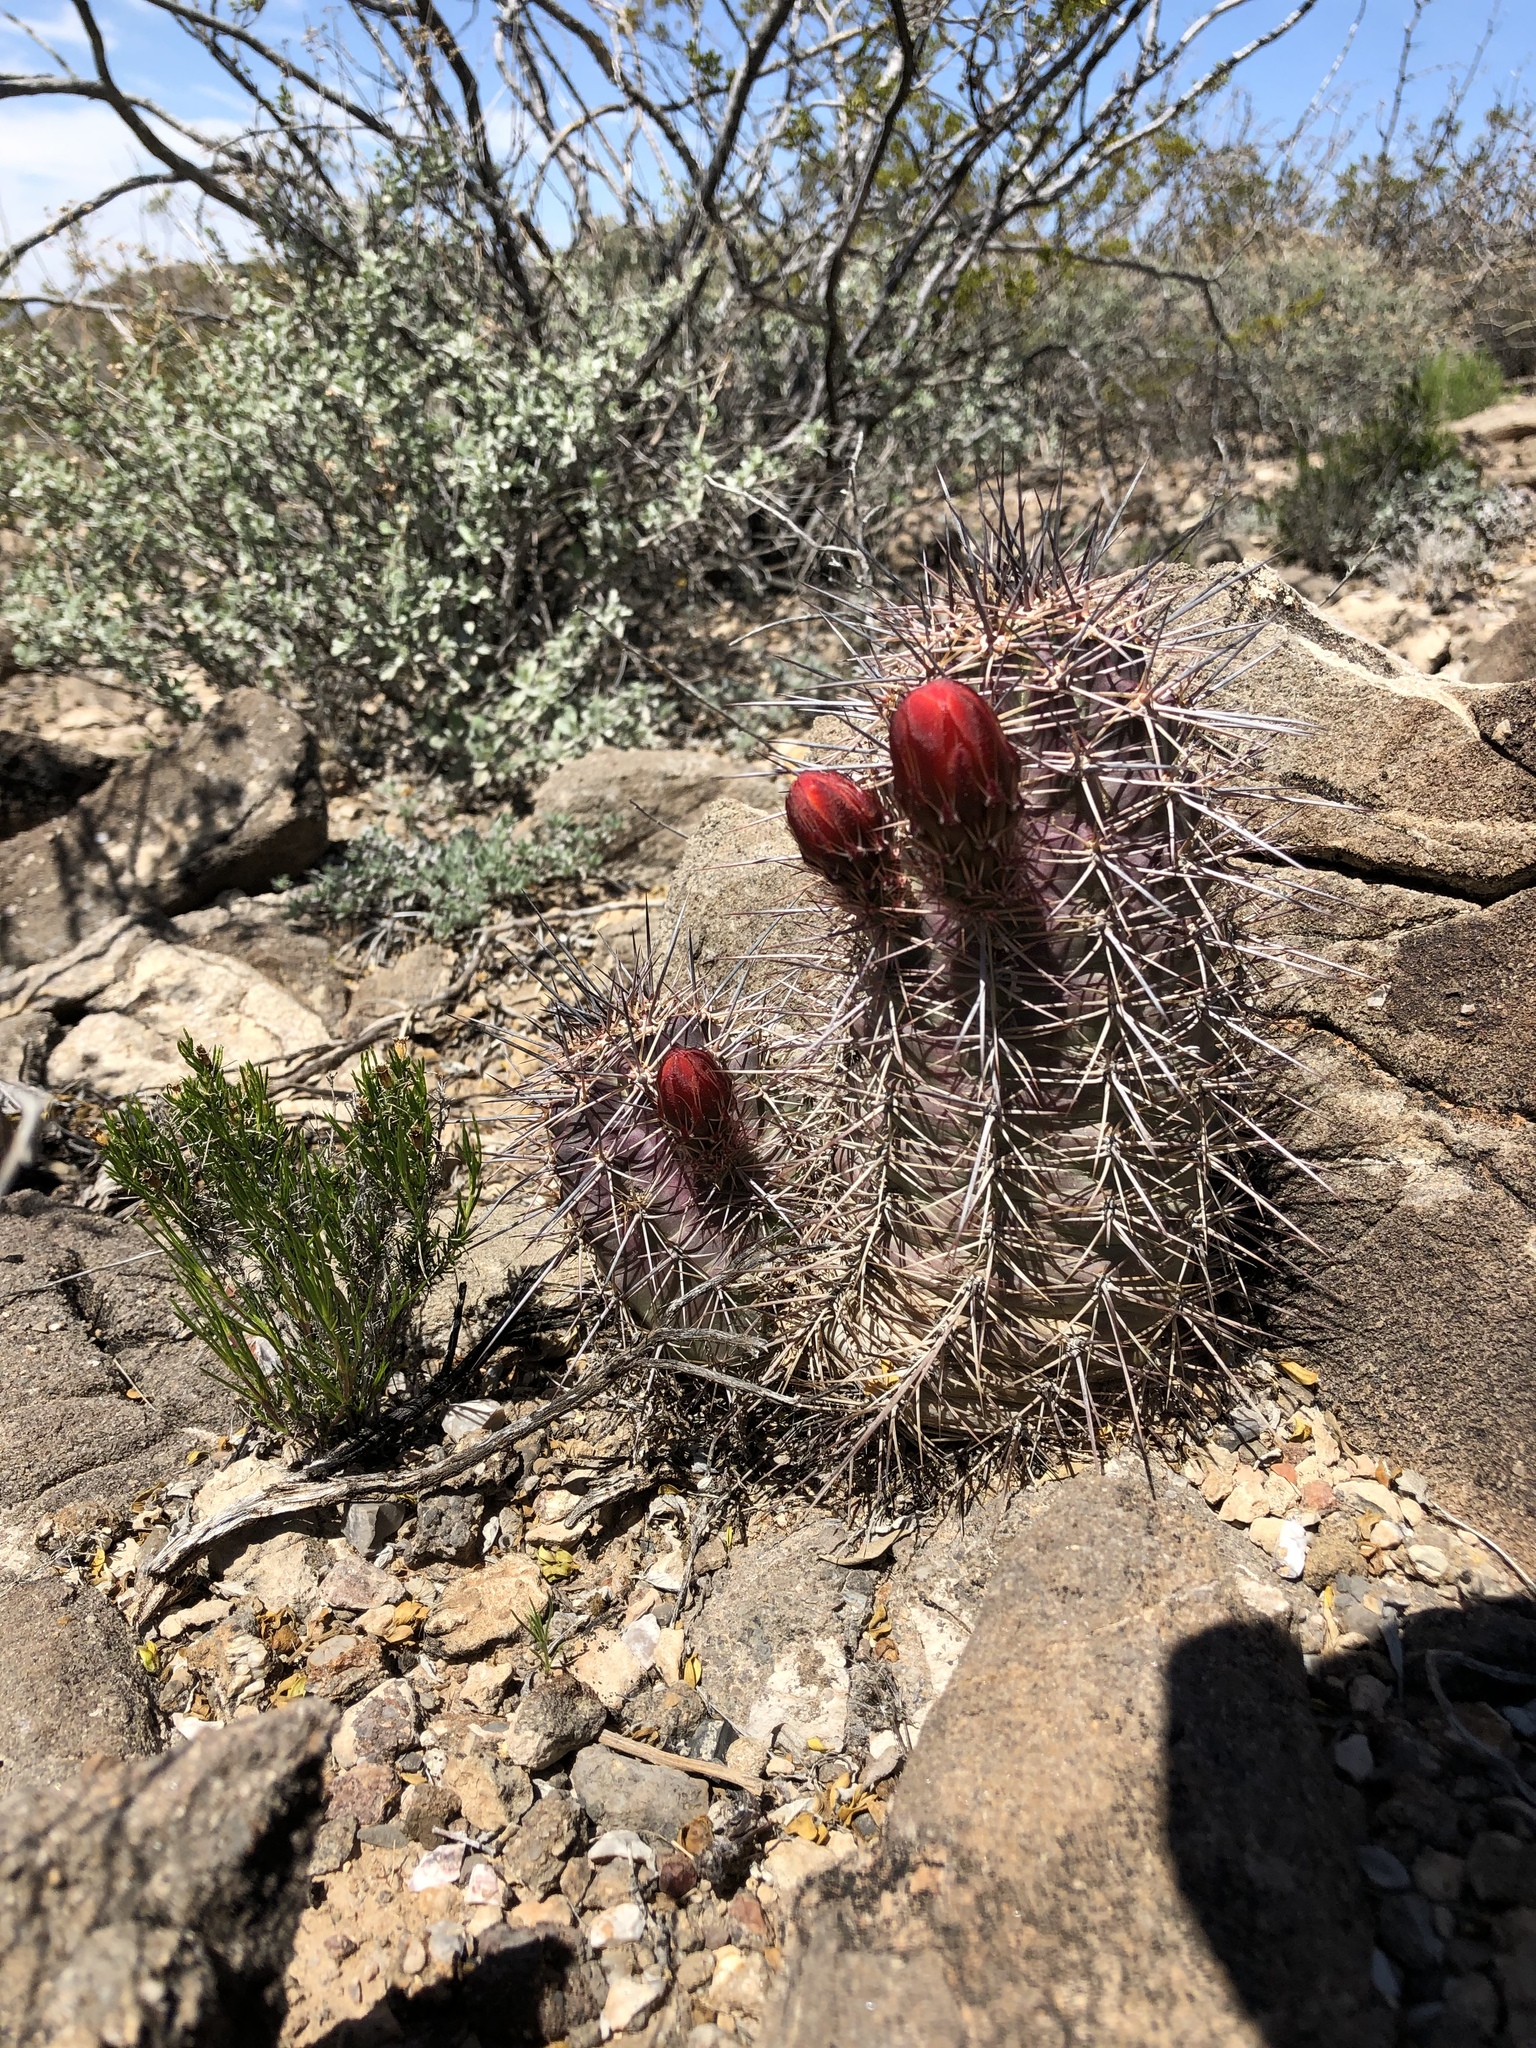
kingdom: Plantae
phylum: Tracheophyta
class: Magnoliopsida
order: Caryophyllales
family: Cactaceae
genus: Echinocereus
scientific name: Echinocereus coccineus
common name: Scarlet hedgehog cactus
